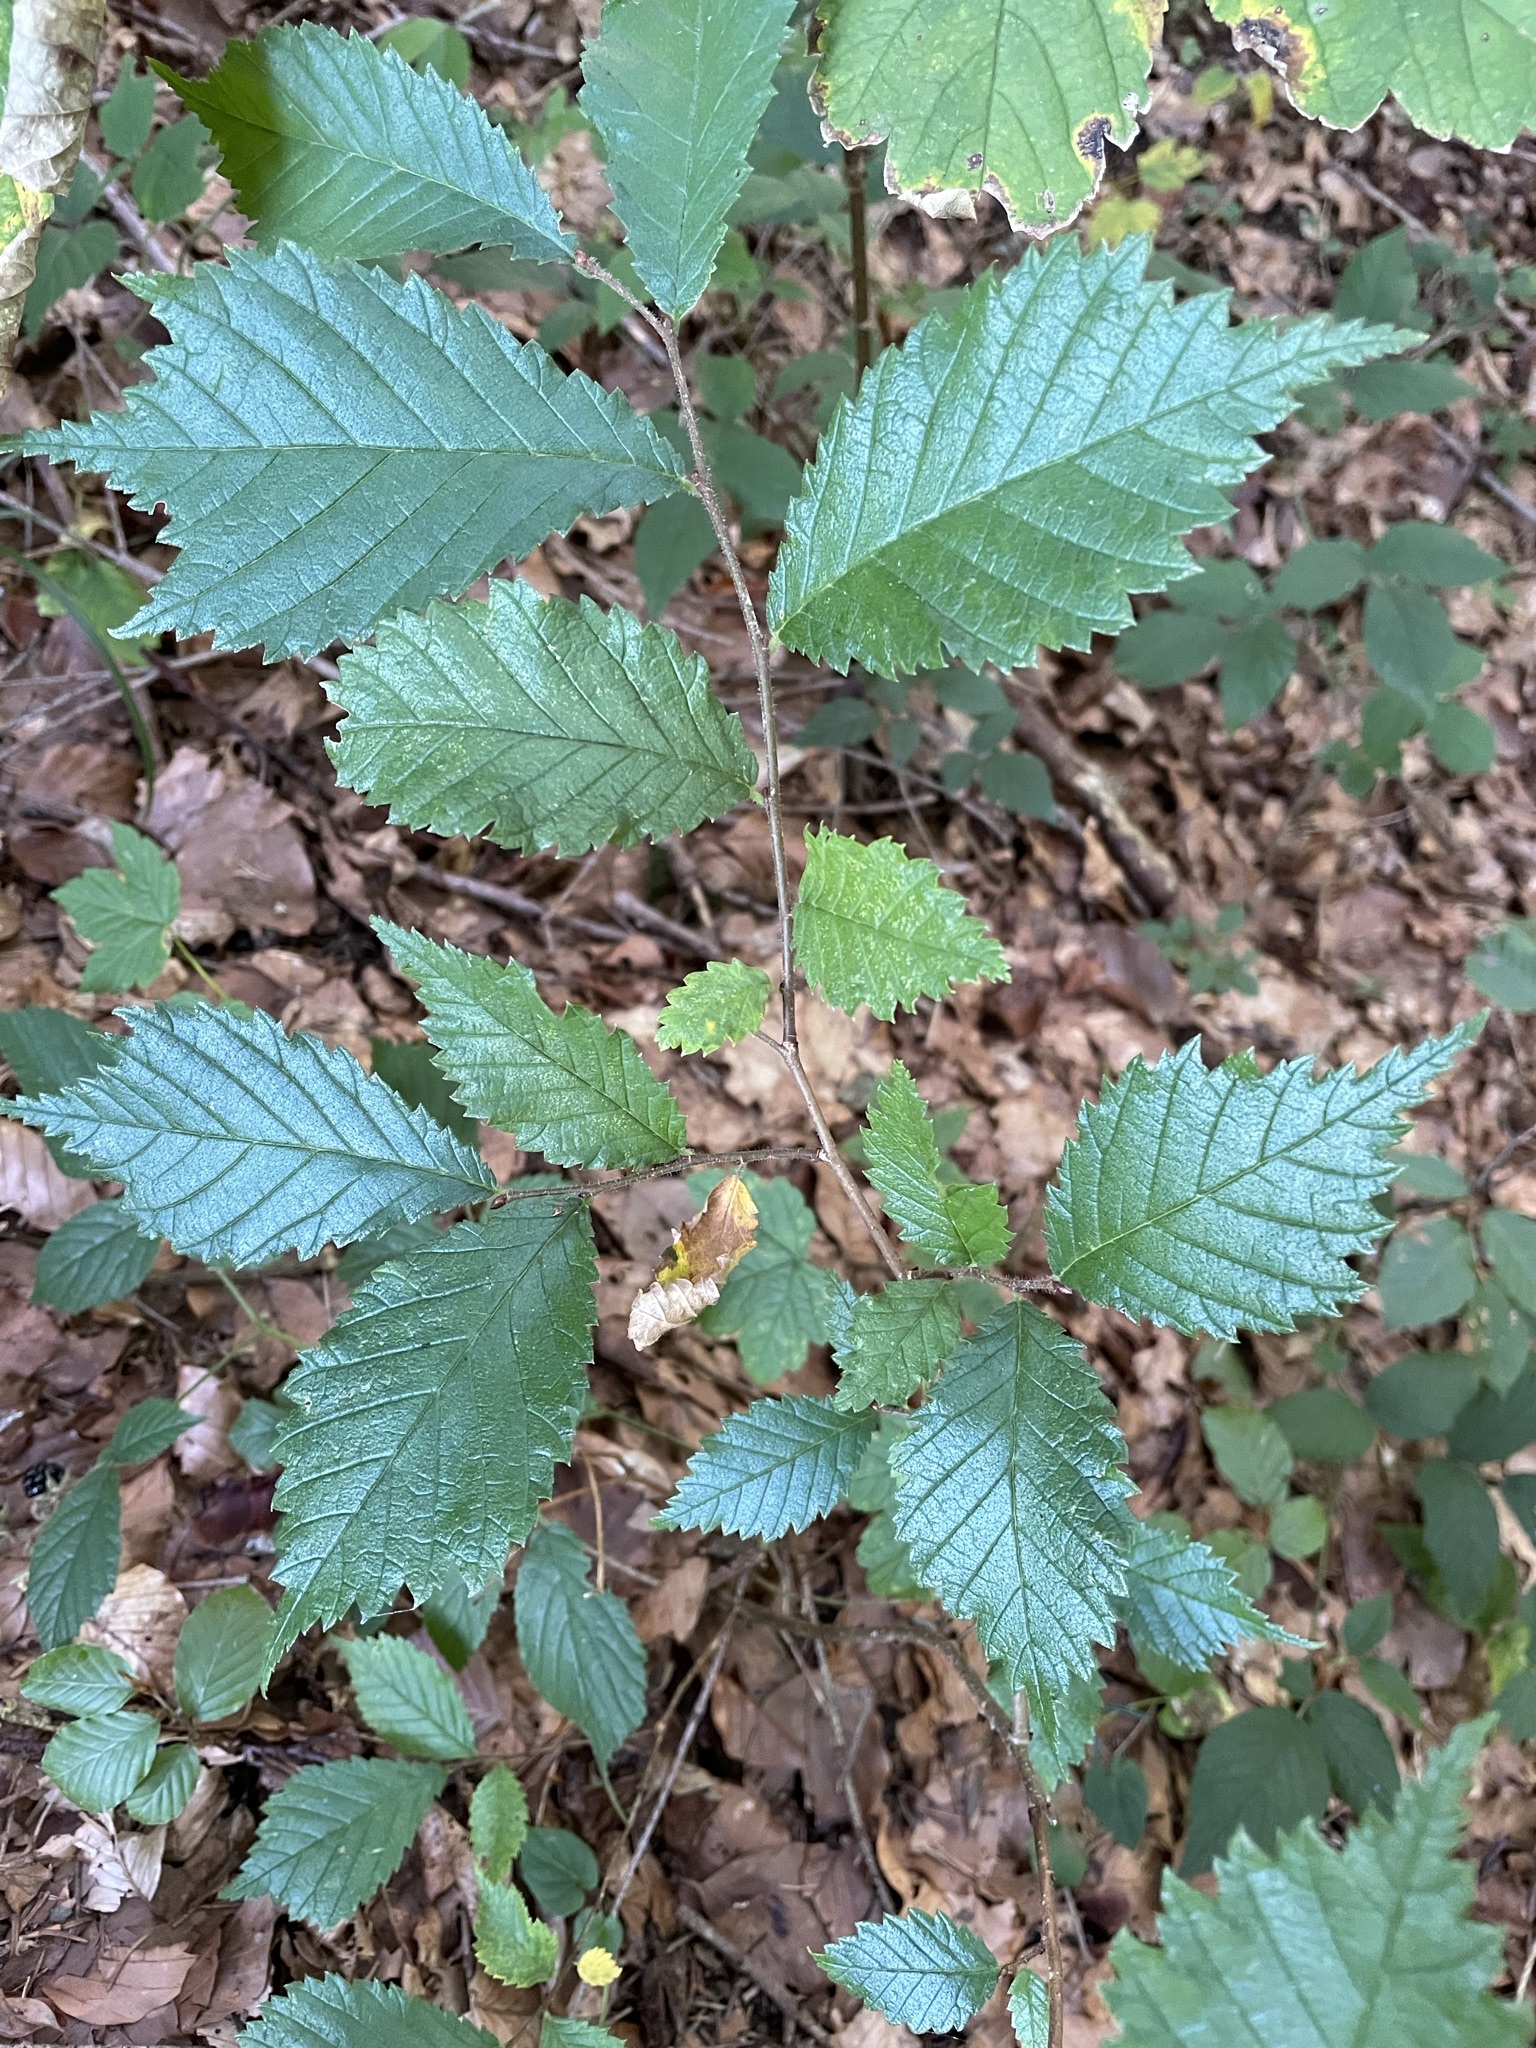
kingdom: Plantae
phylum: Tracheophyta
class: Magnoliopsida
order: Rosales
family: Ulmaceae
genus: Ulmus
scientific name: Ulmus glabra
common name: Wych elm
